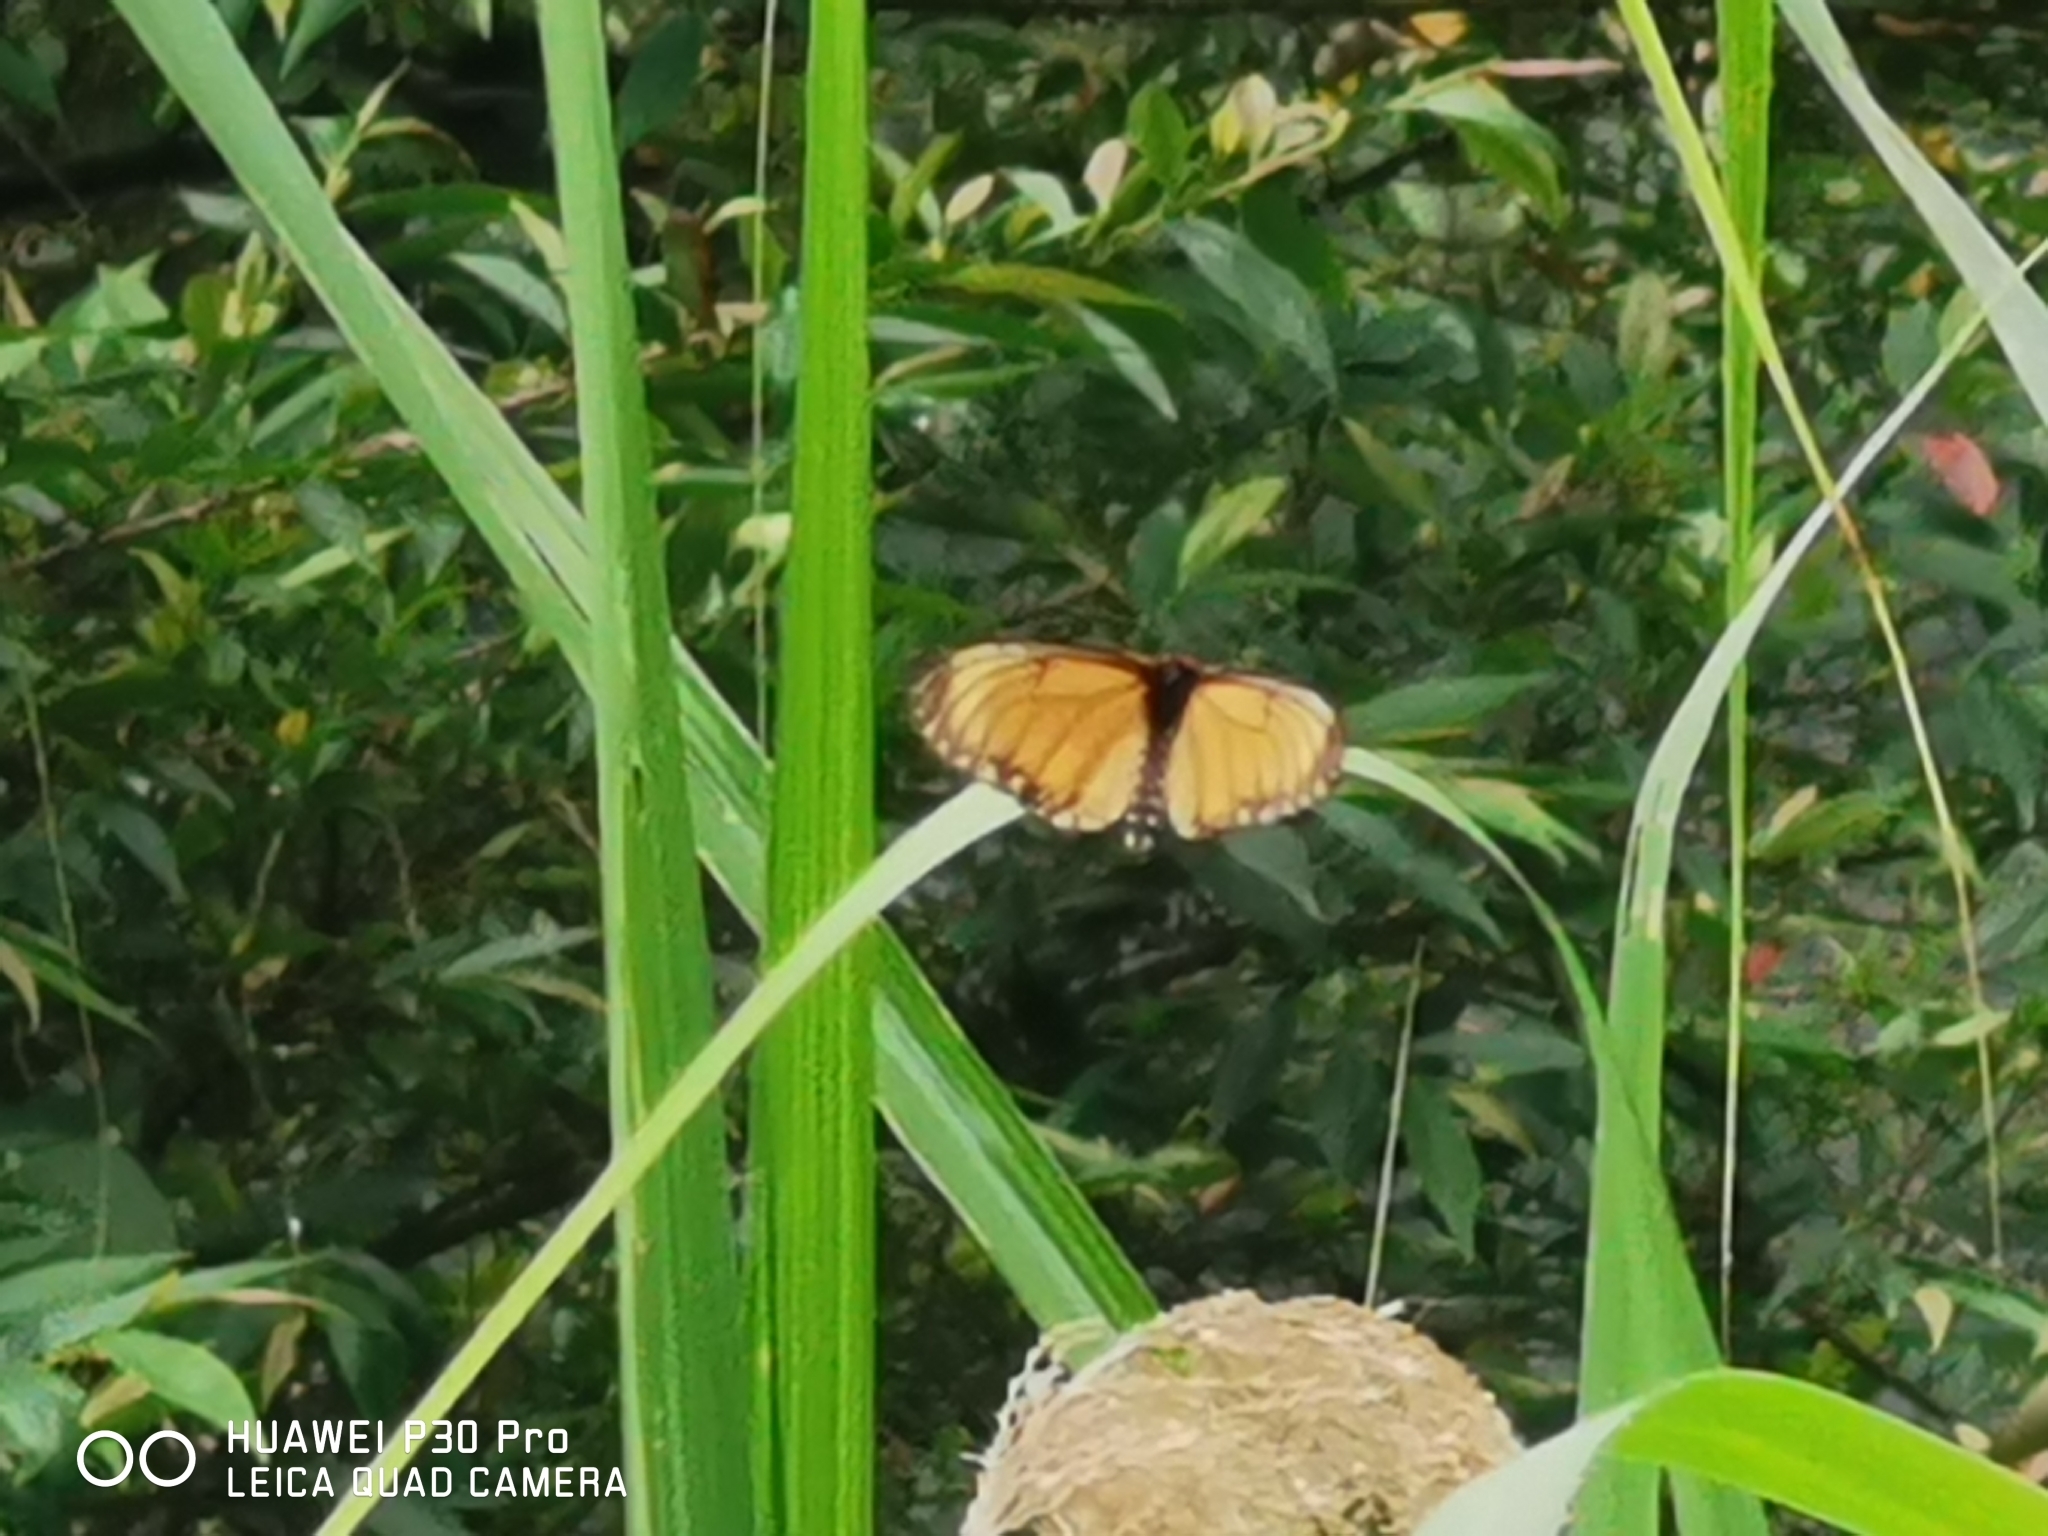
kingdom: Animalia
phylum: Arthropoda
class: Insecta
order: Lepidoptera
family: Nymphalidae
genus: Acraea
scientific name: Acraea Telchinia issoria
